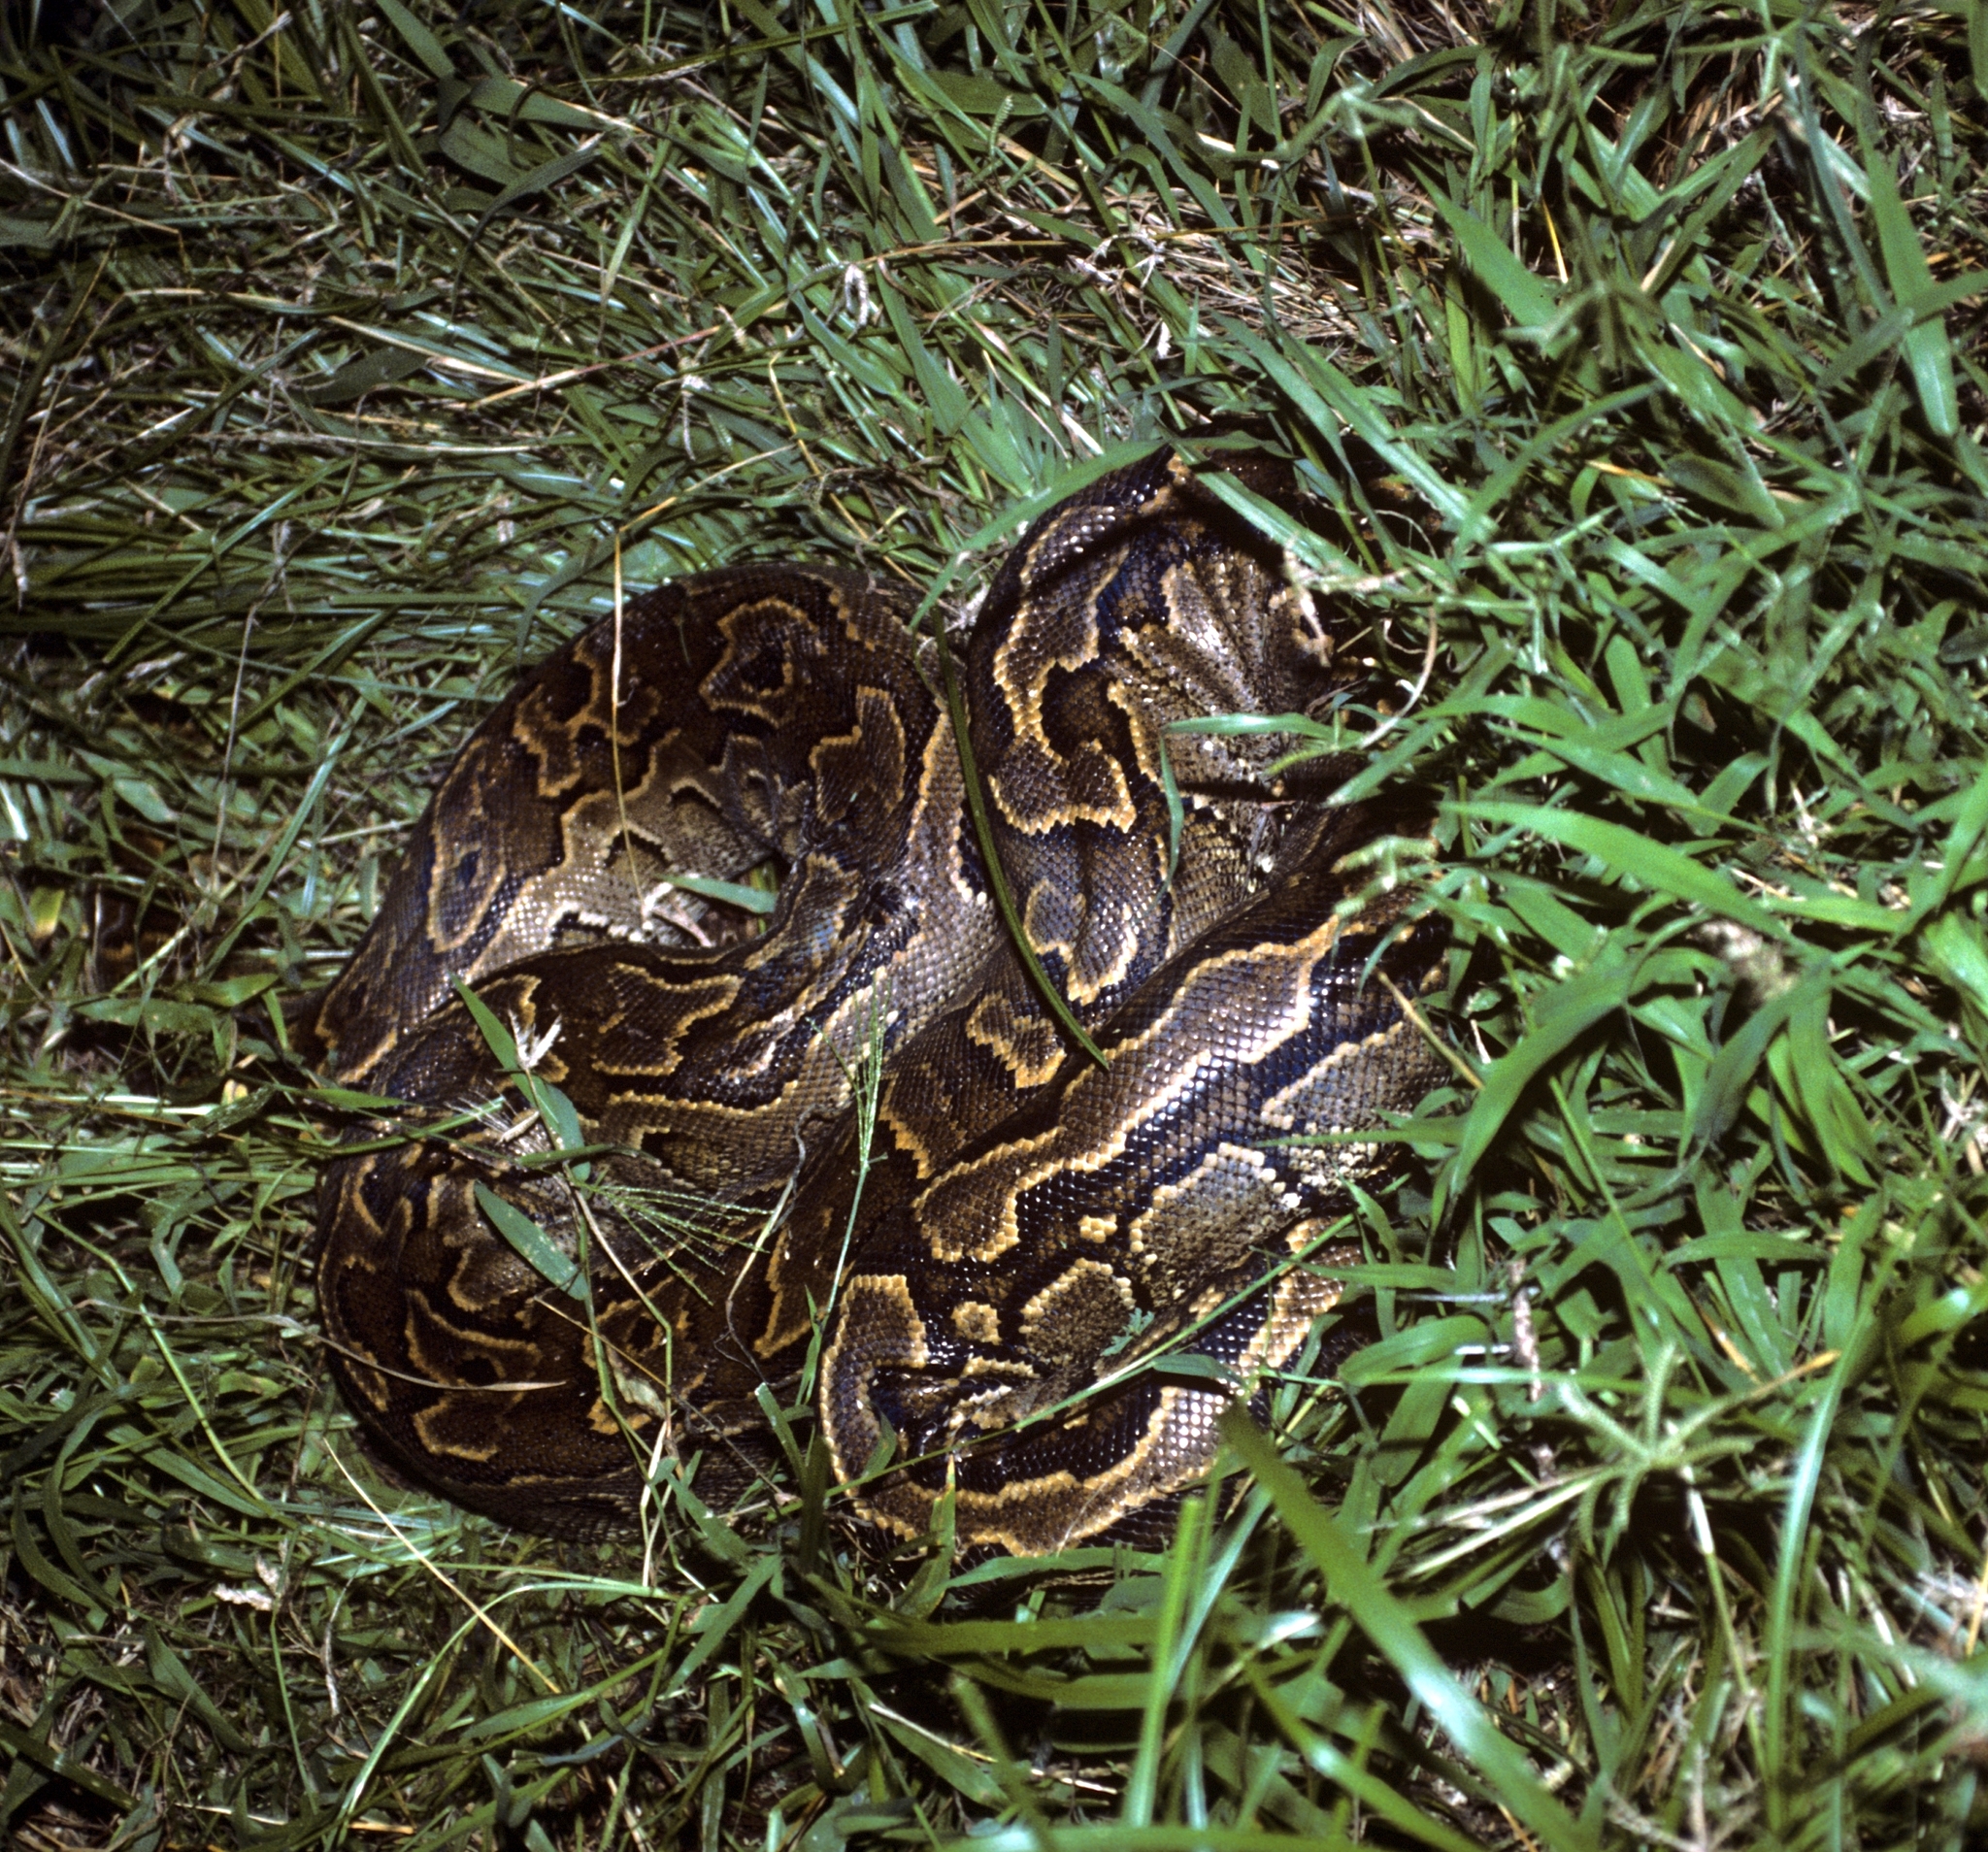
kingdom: Animalia
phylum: Chordata
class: Squamata
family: Pythonidae
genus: Python
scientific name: Python sebae
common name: African rock python
